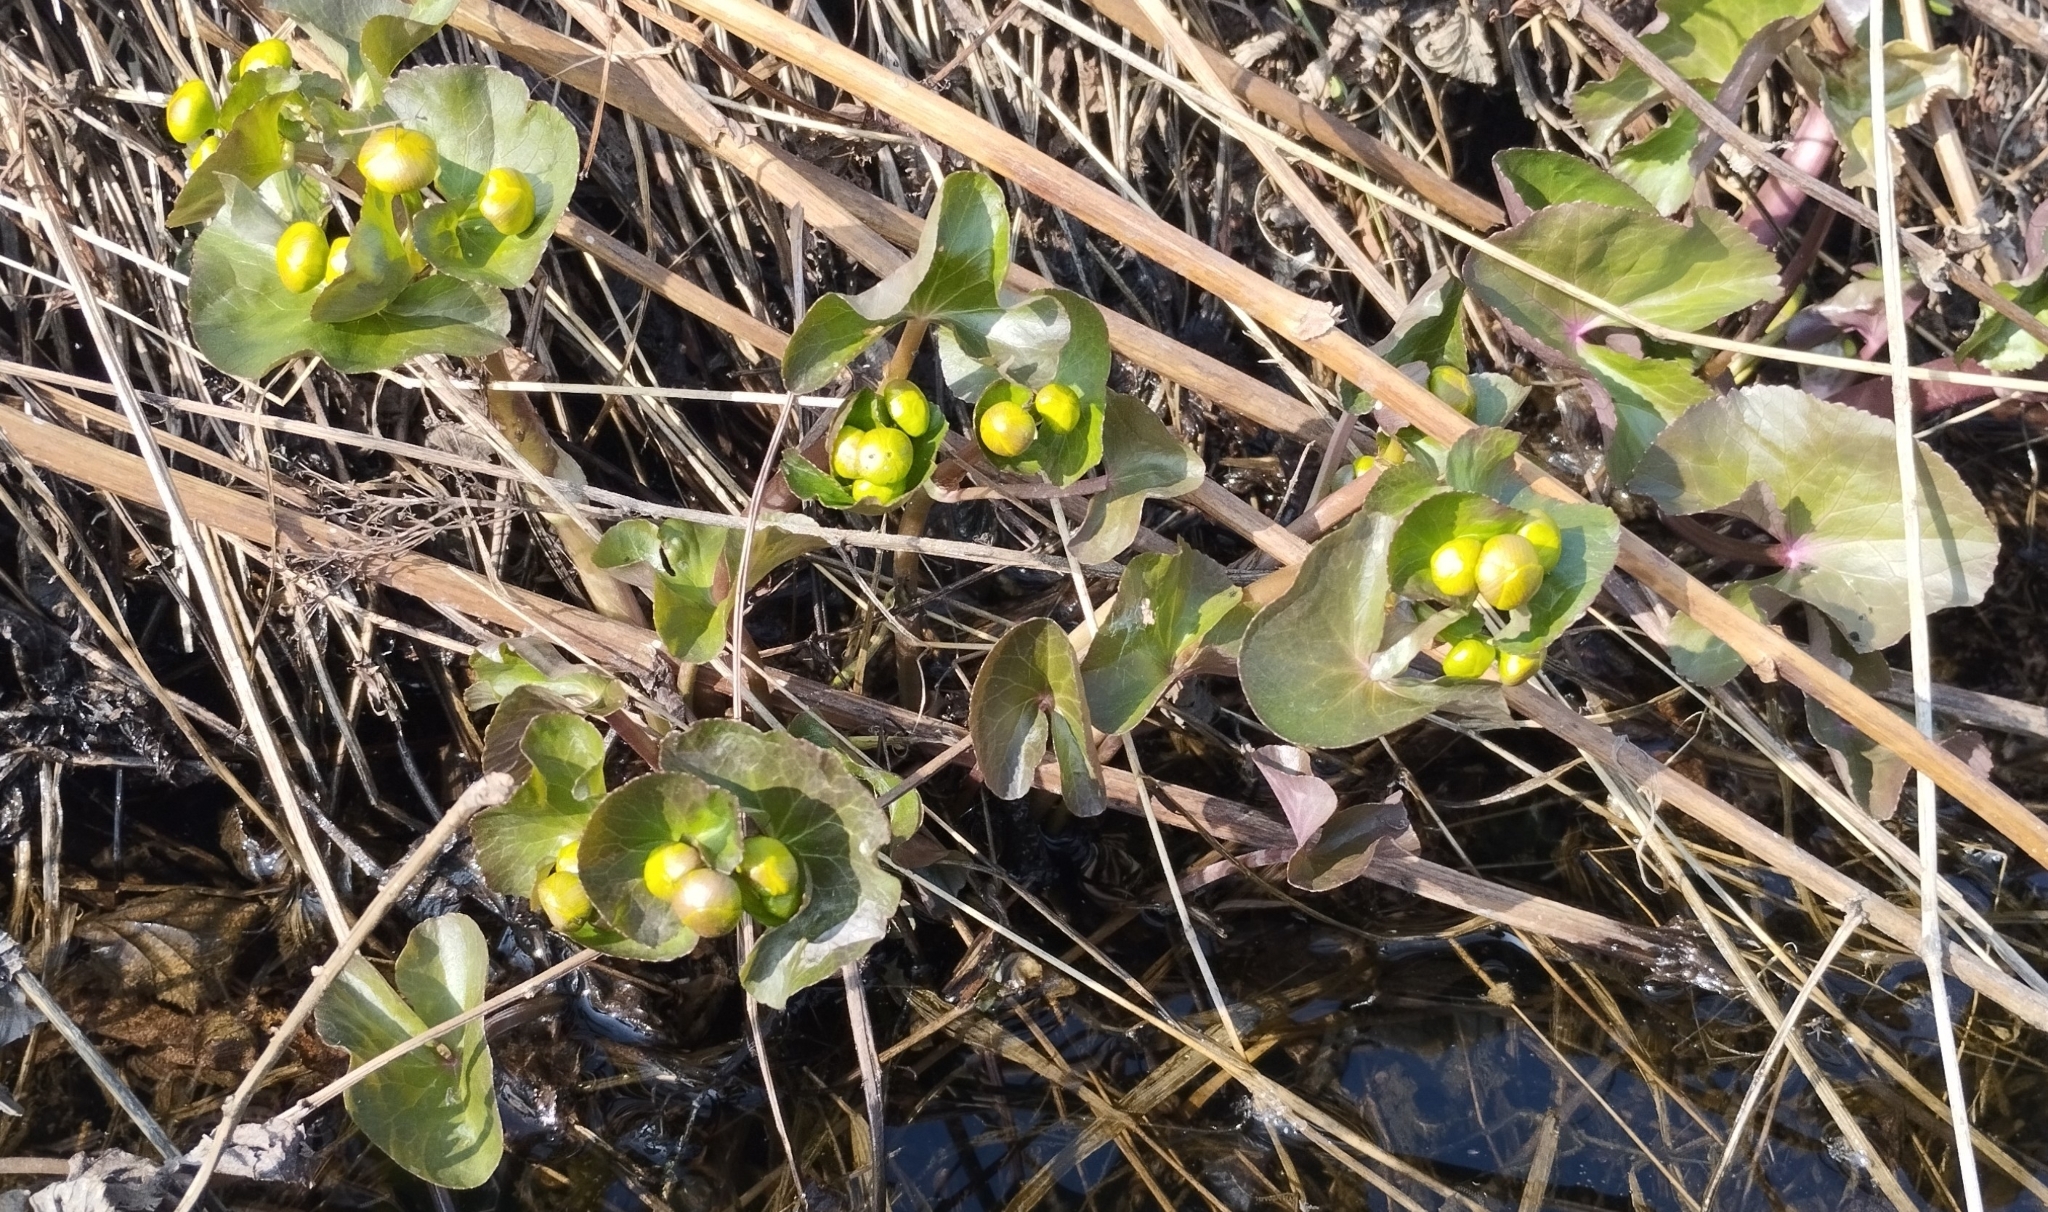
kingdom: Plantae
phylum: Tracheophyta
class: Magnoliopsida
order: Ranunculales
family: Ranunculaceae
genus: Caltha
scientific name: Caltha palustris
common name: Marsh marigold
